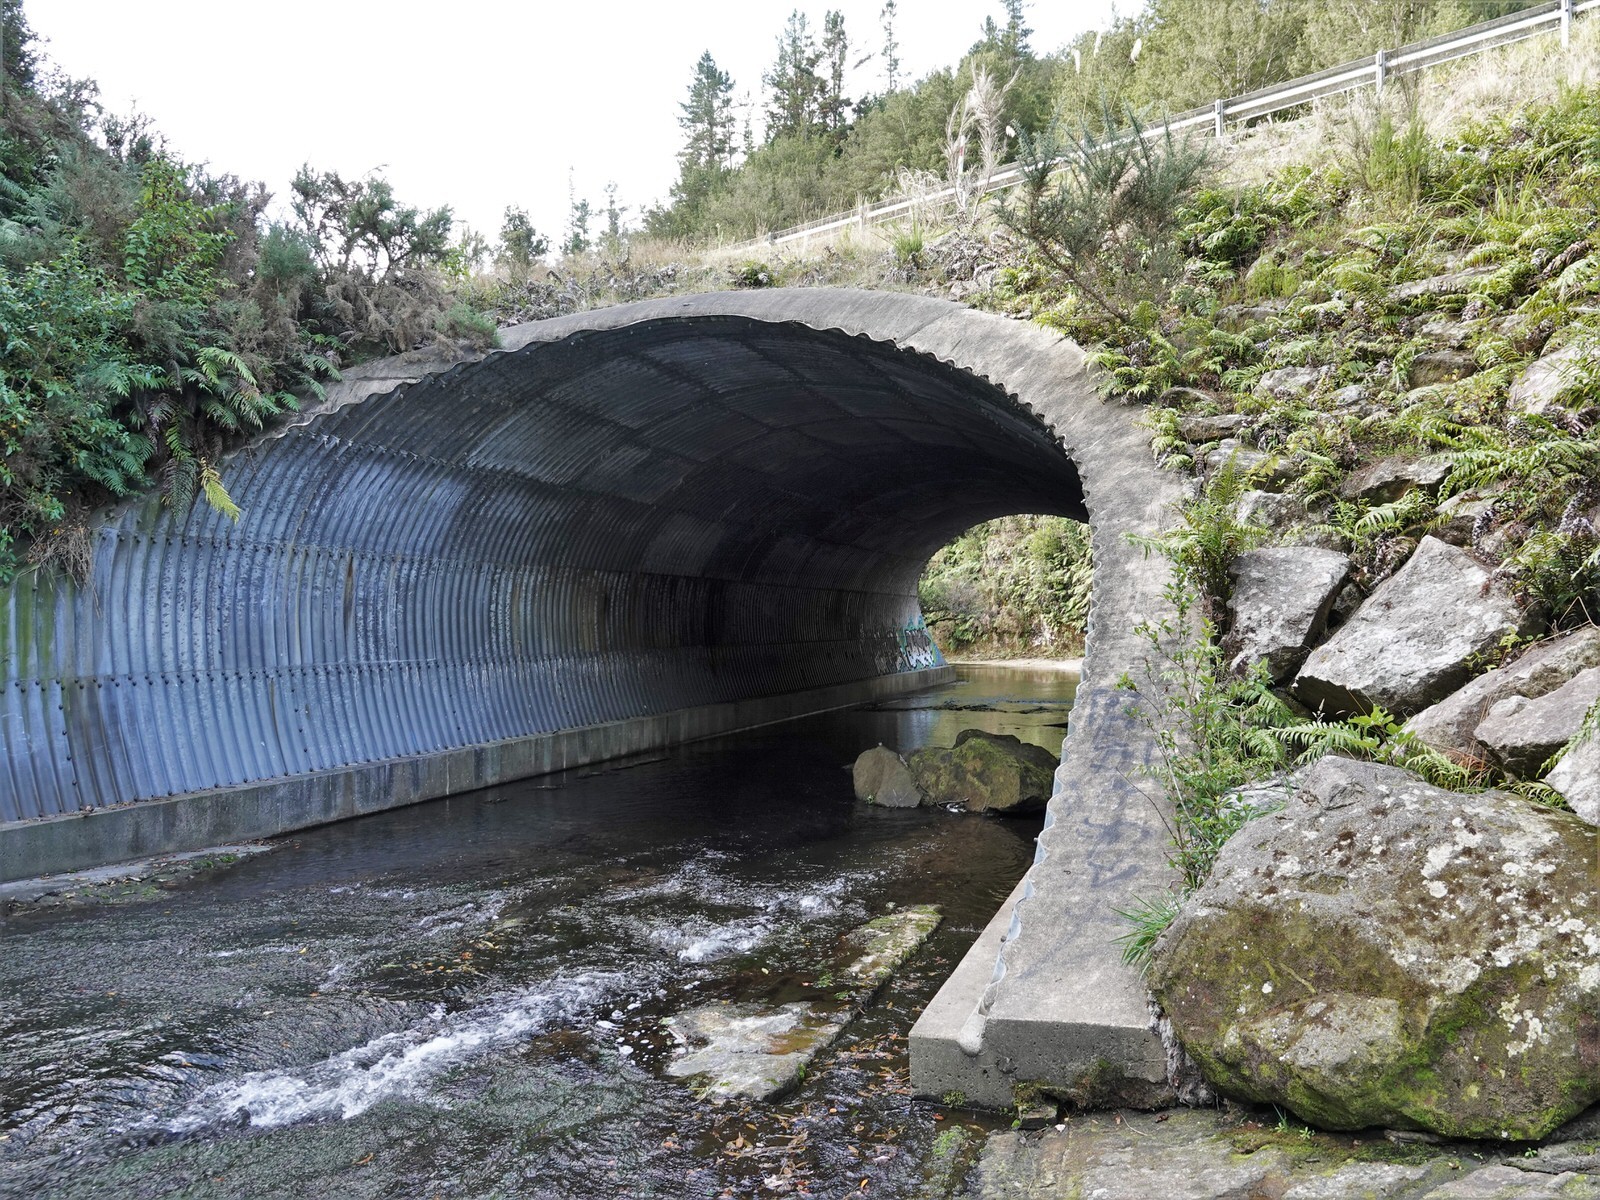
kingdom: Animalia
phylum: Chordata
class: Aves
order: Passeriformes
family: Hirundinidae
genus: Hirundo
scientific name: Hirundo neoxena
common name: Welcome swallow
